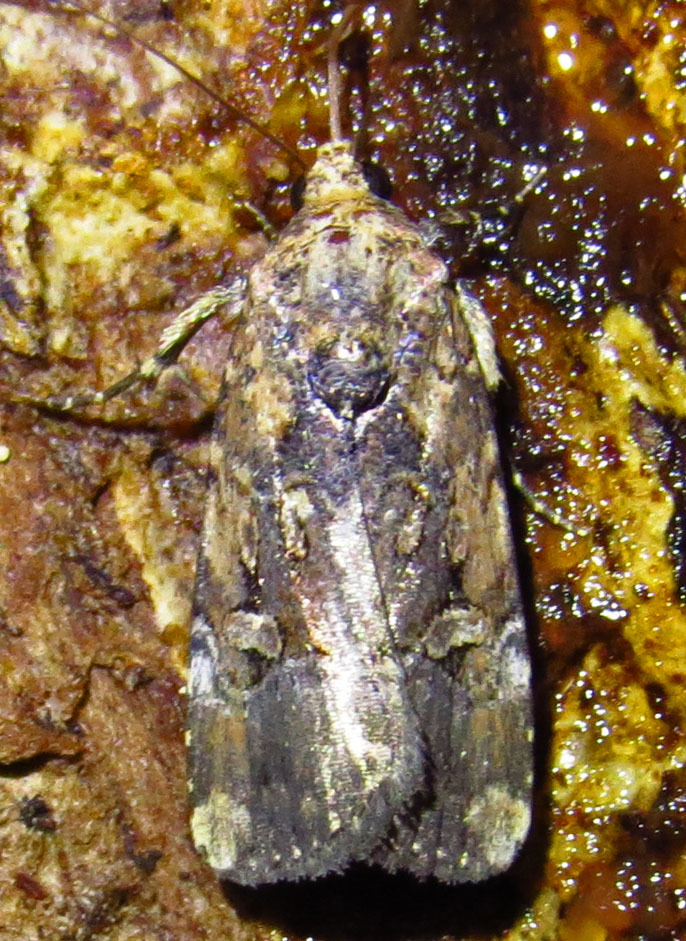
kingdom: Animalia
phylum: Arthropoda
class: Insecta
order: Lepidoptera
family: Noctuidae
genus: Elaphria
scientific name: Elaphria chalcedonia
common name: Chalcedony midget
